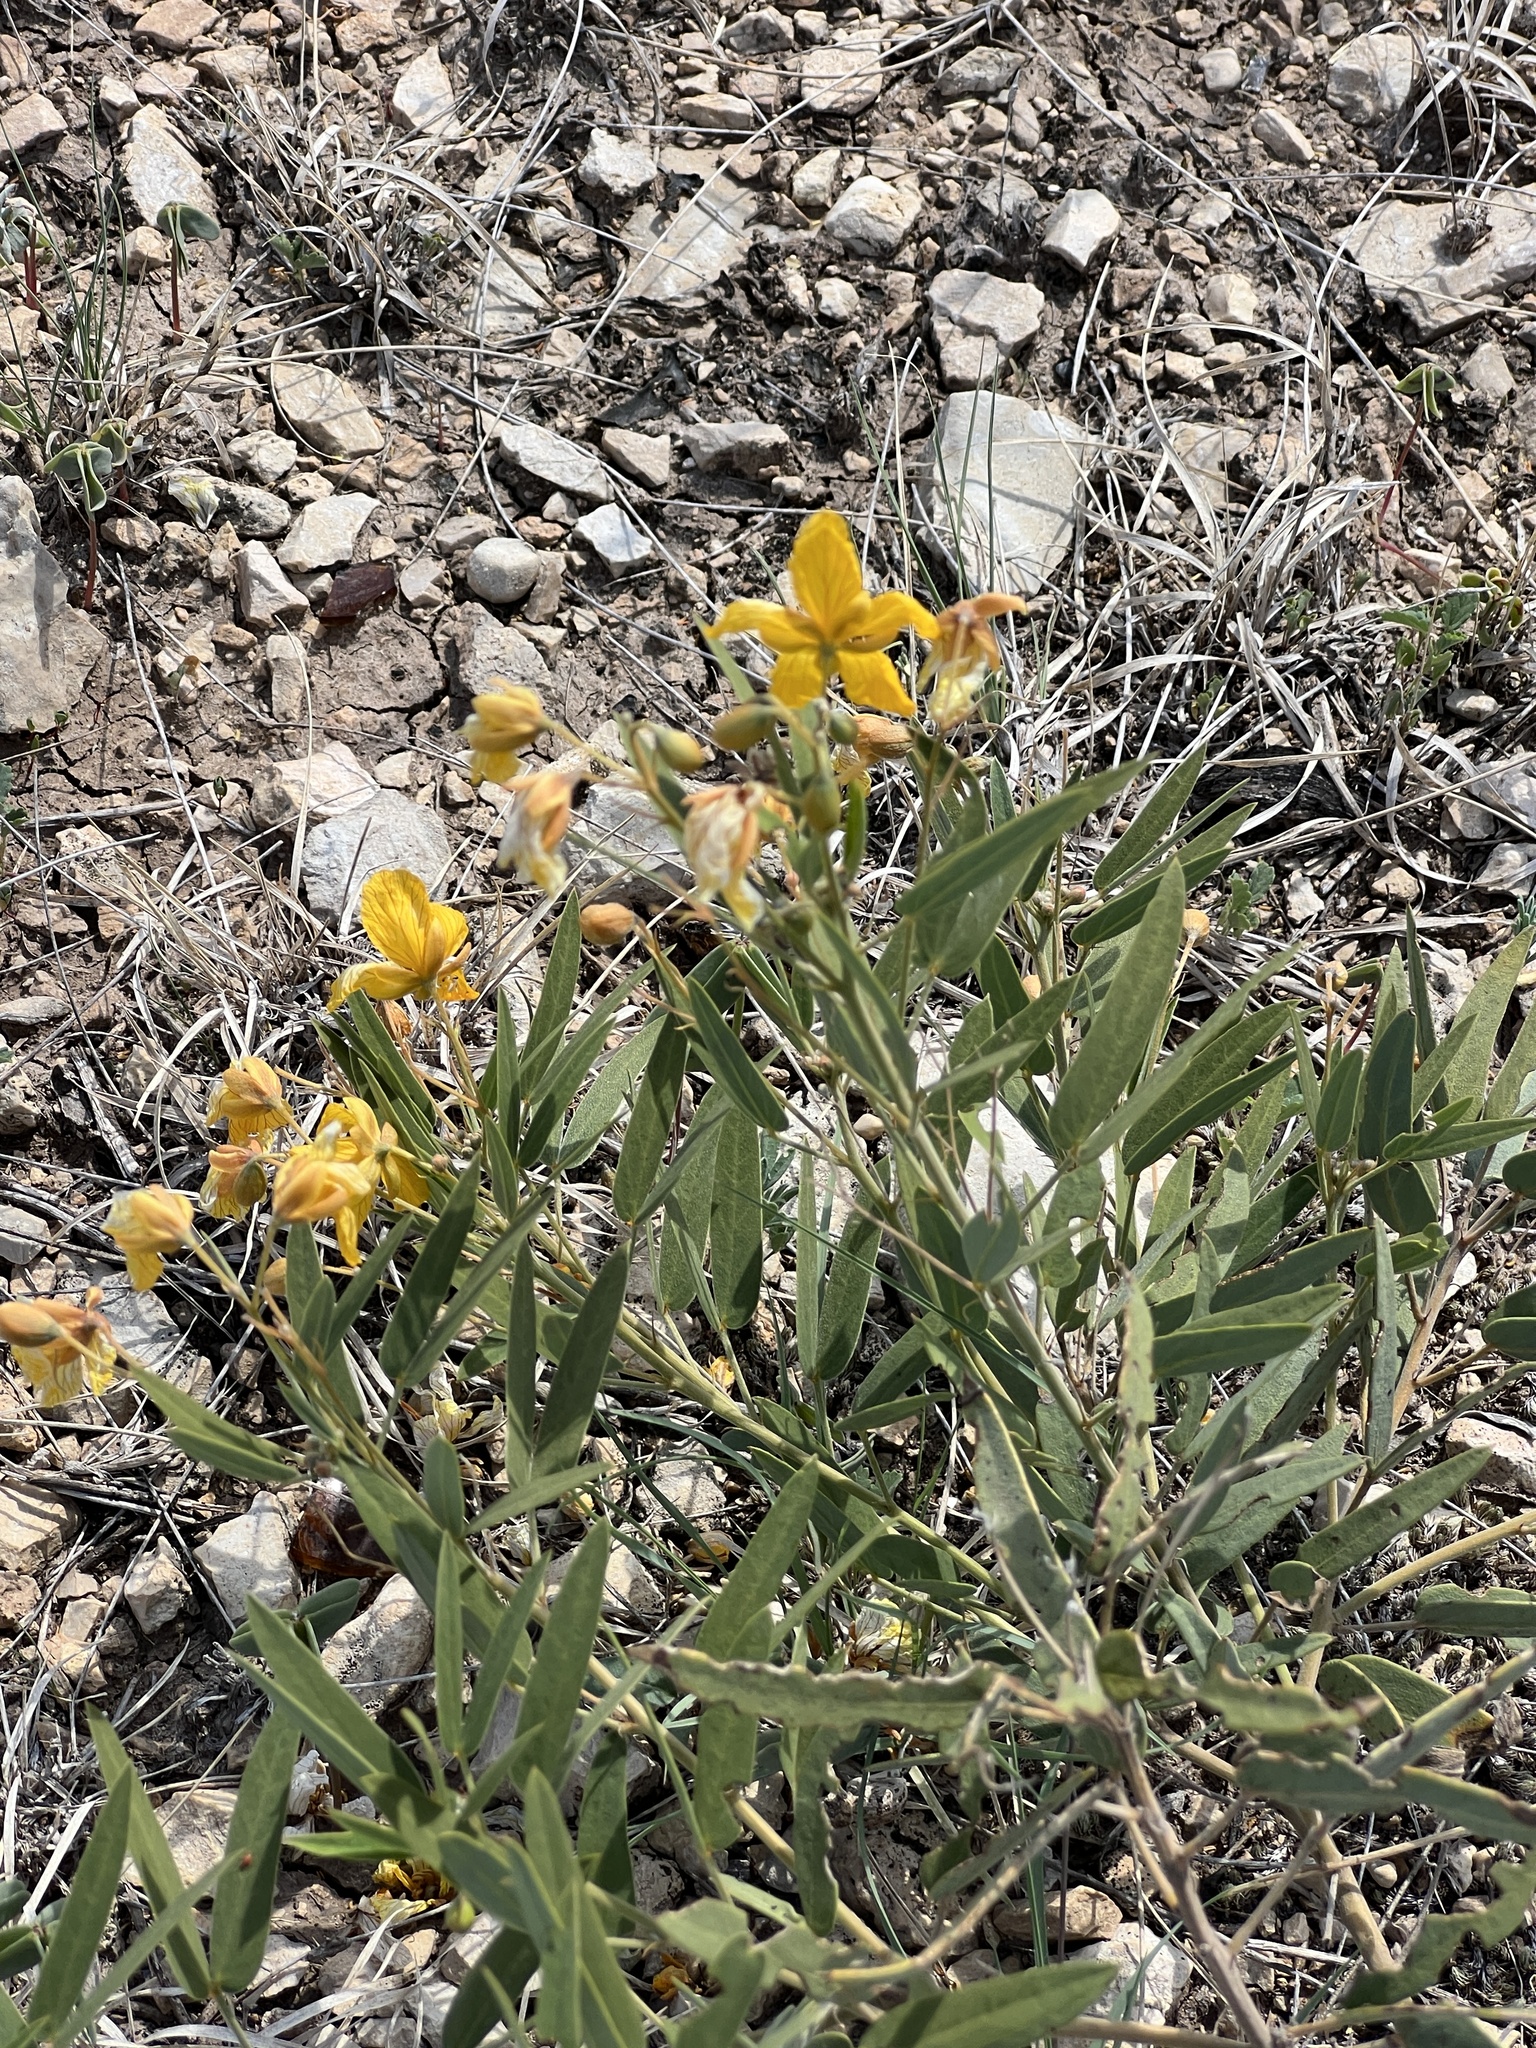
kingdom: Plantae
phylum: Tracheophyta
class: Magnoliopsida
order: Fabales
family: Fabaceae
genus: Senna
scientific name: Senna roemeriana
